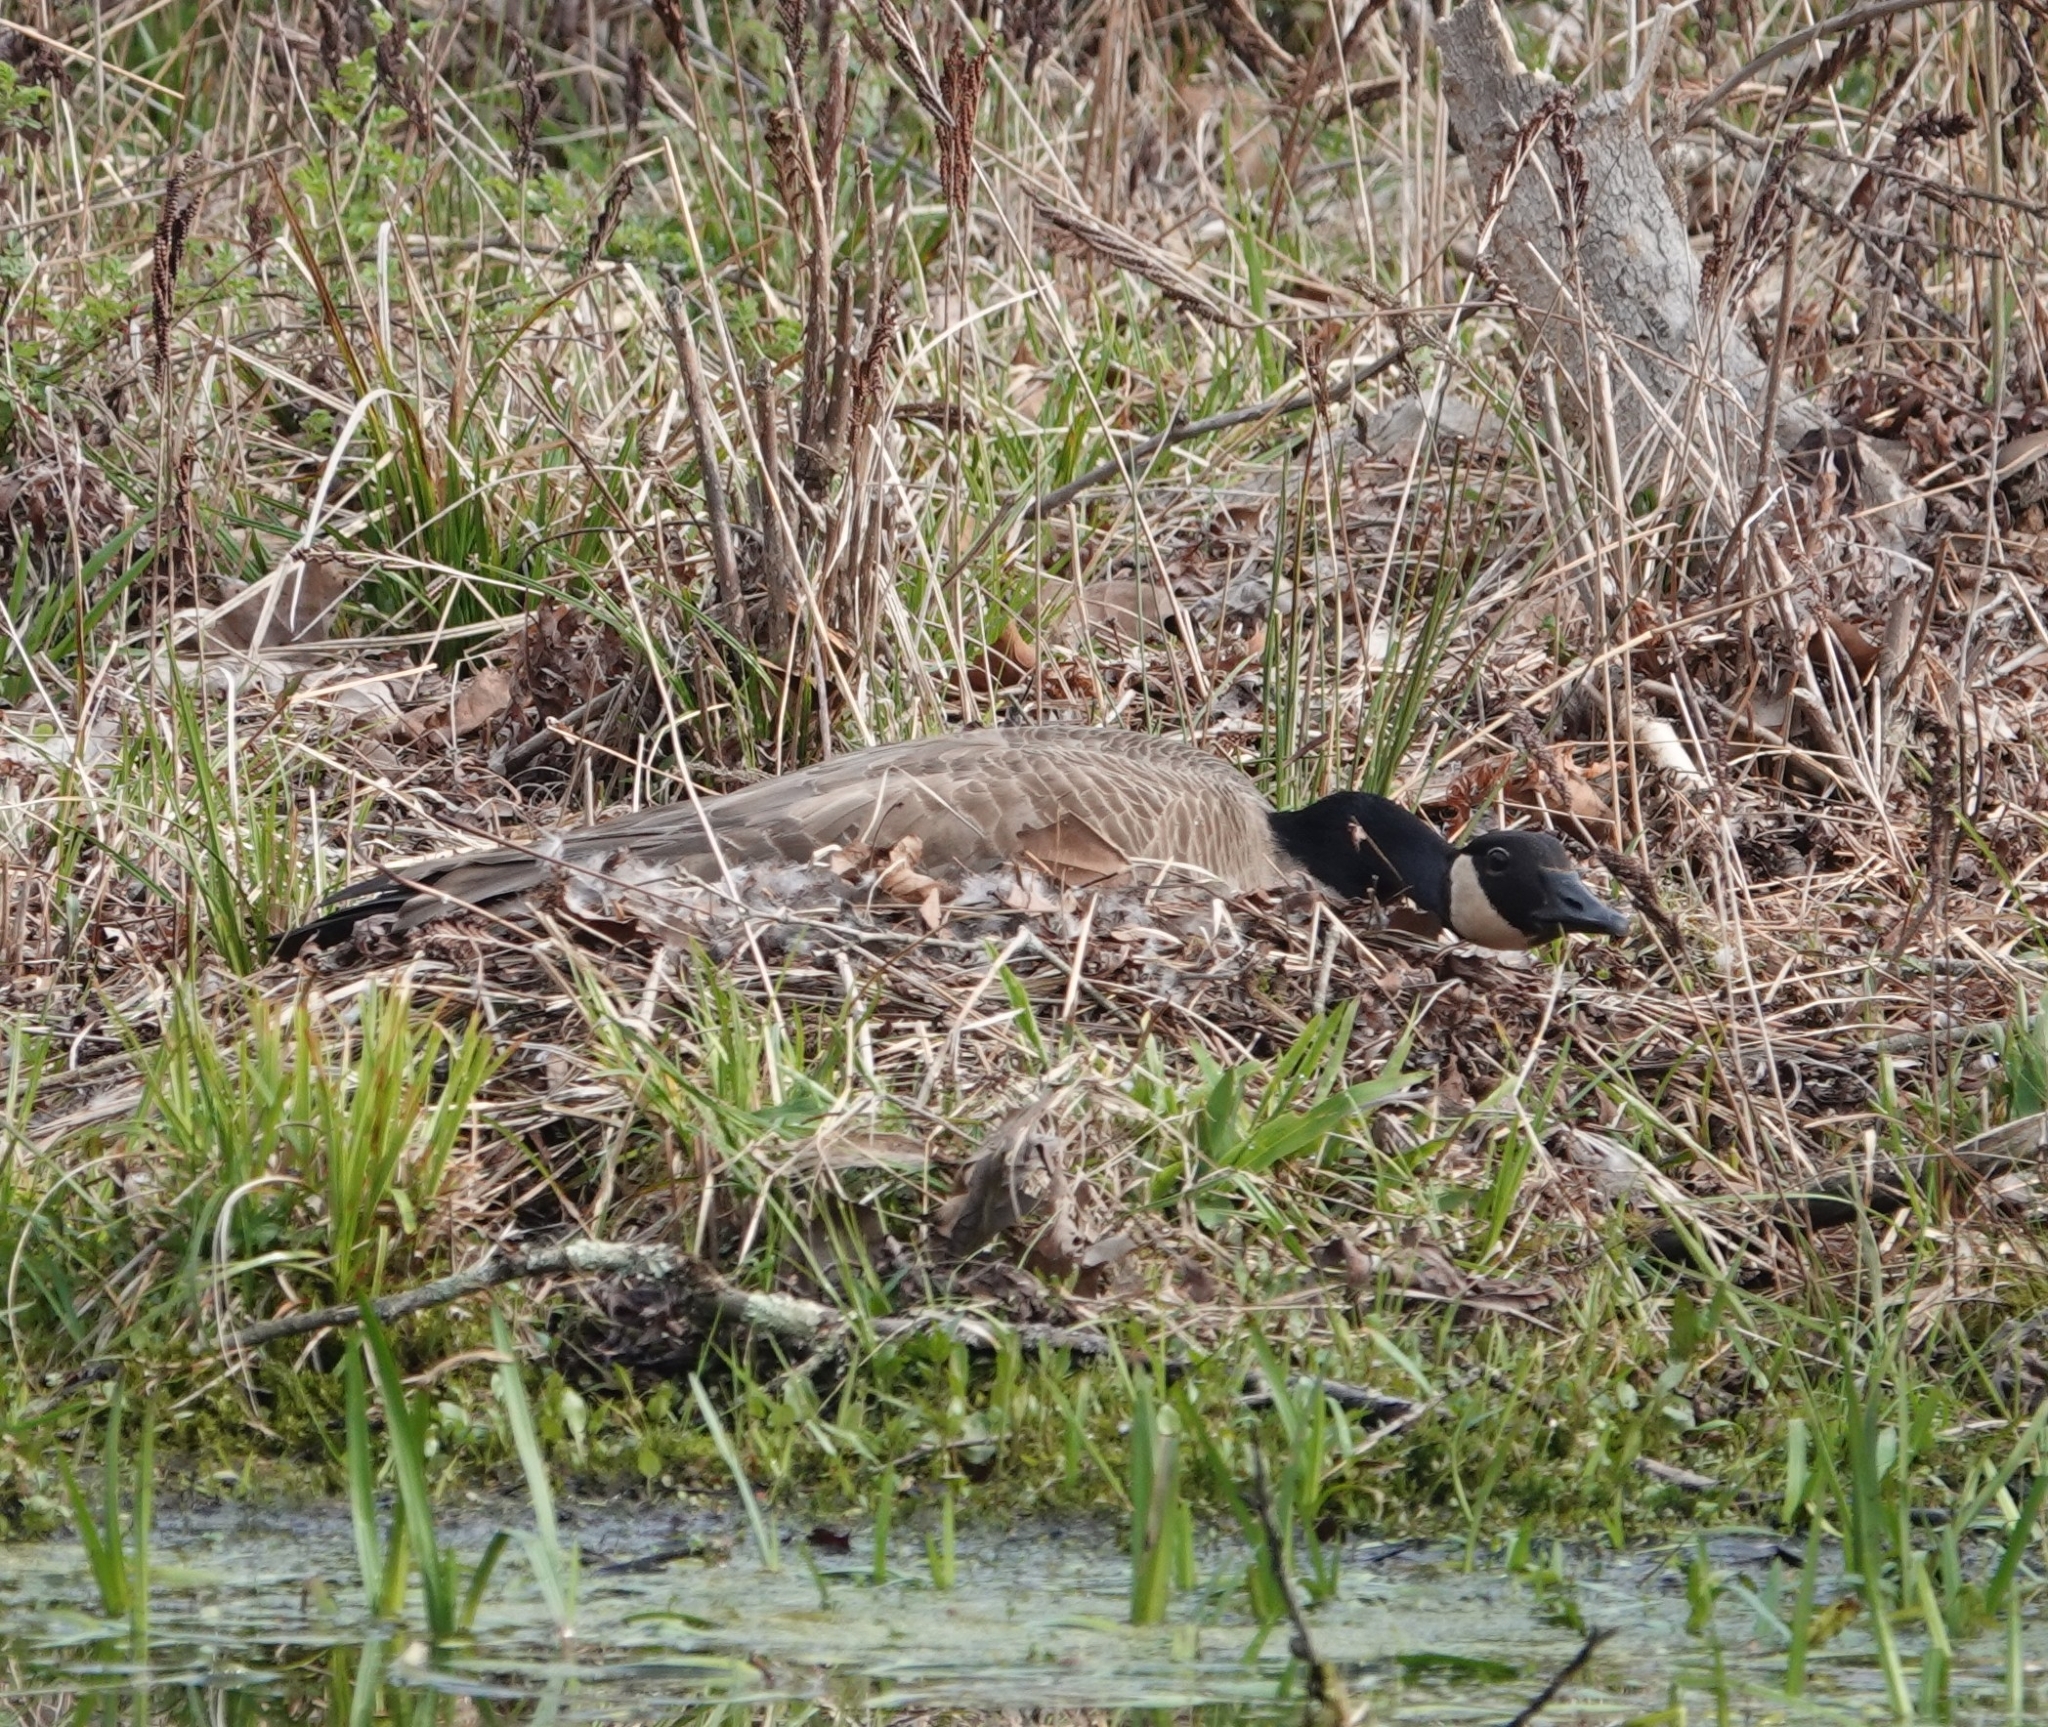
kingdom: Animalia
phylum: Chordata
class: Aves
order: Anseriformes
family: Anatidae
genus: Branta
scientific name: Branta canadensis
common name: Canada goose
